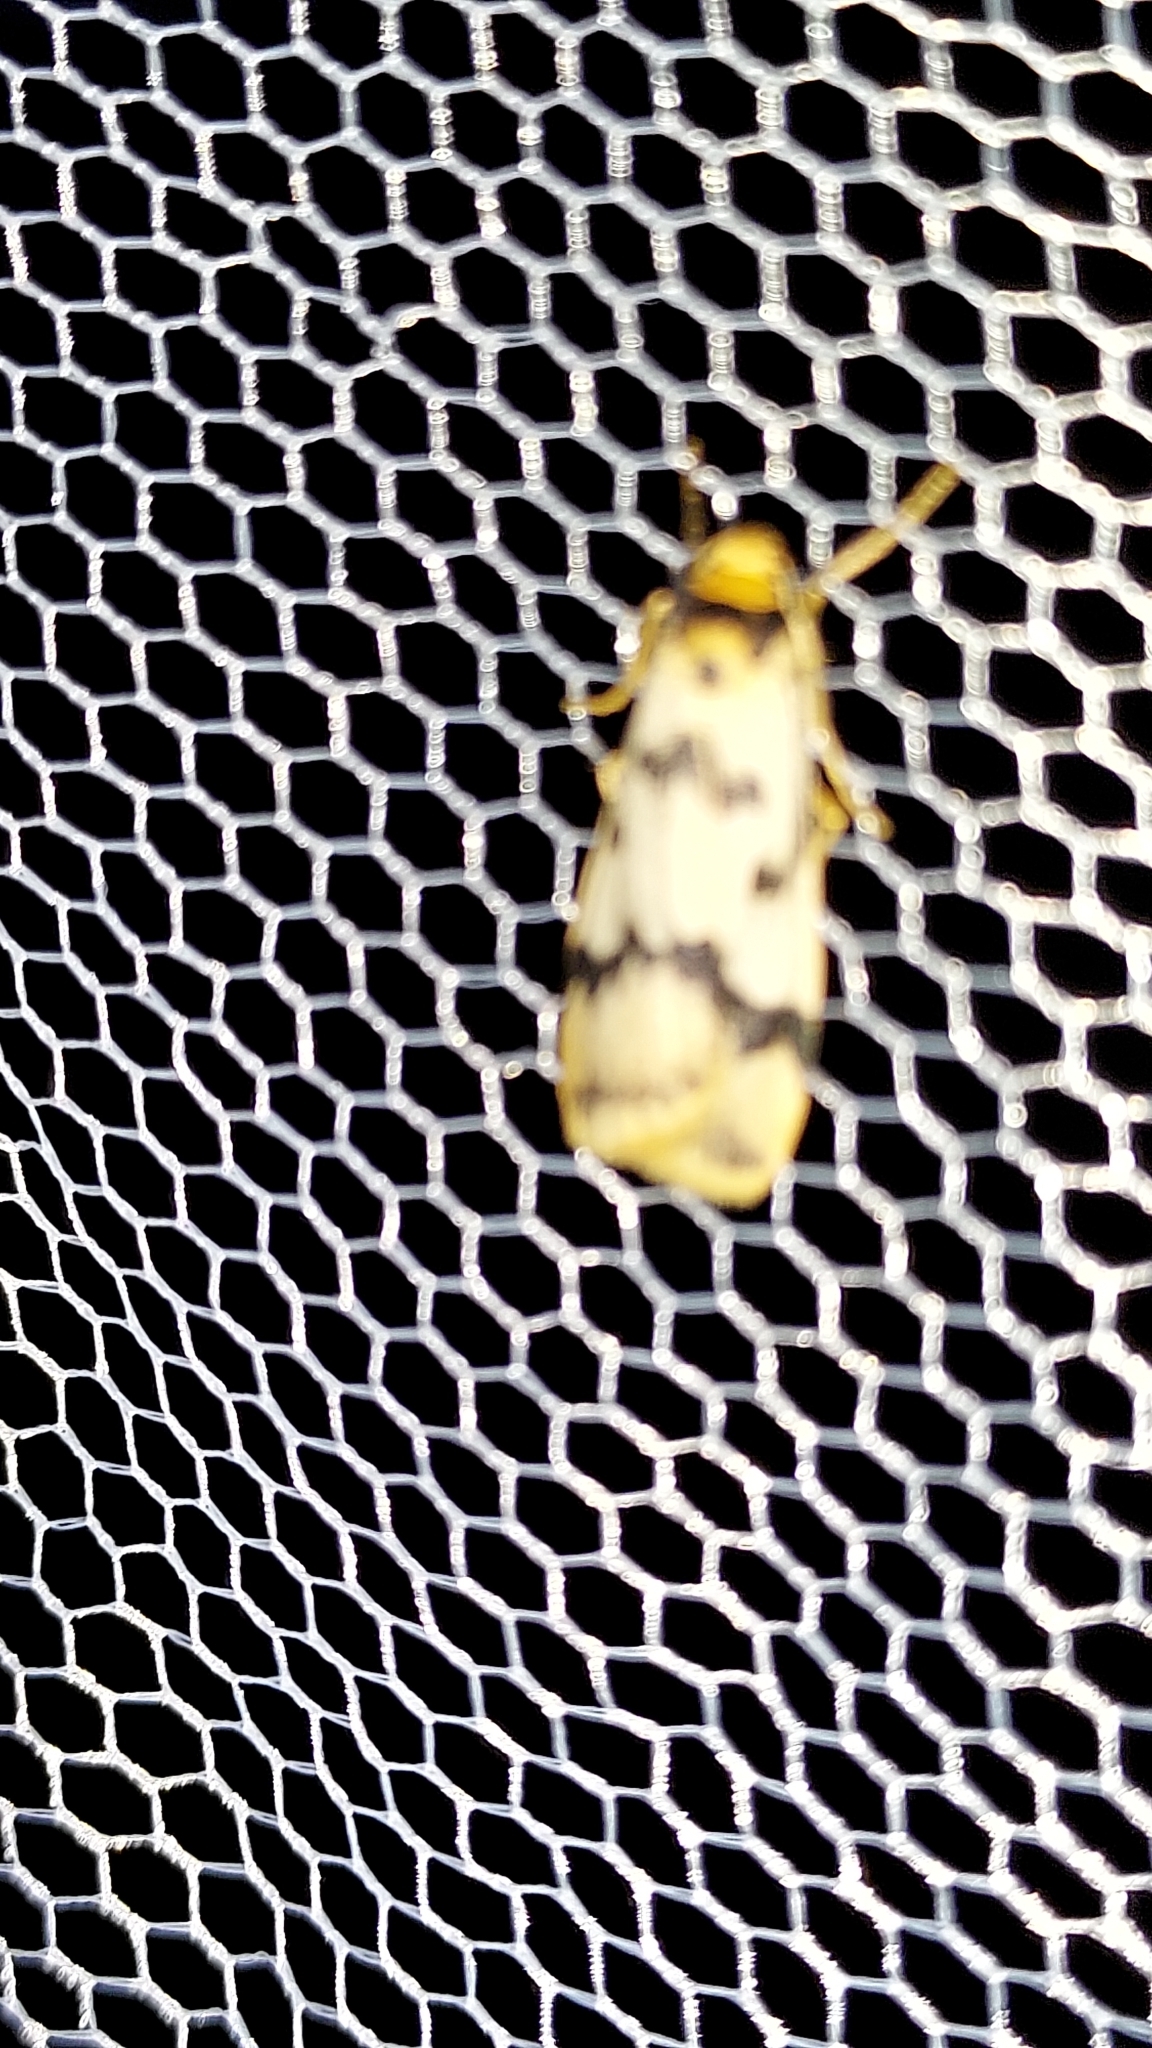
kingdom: Animalia
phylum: Arthropoda
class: Insecta
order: Lepidoptera
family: Erebidae
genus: Tigrioides
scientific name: Tigrioides alterna
